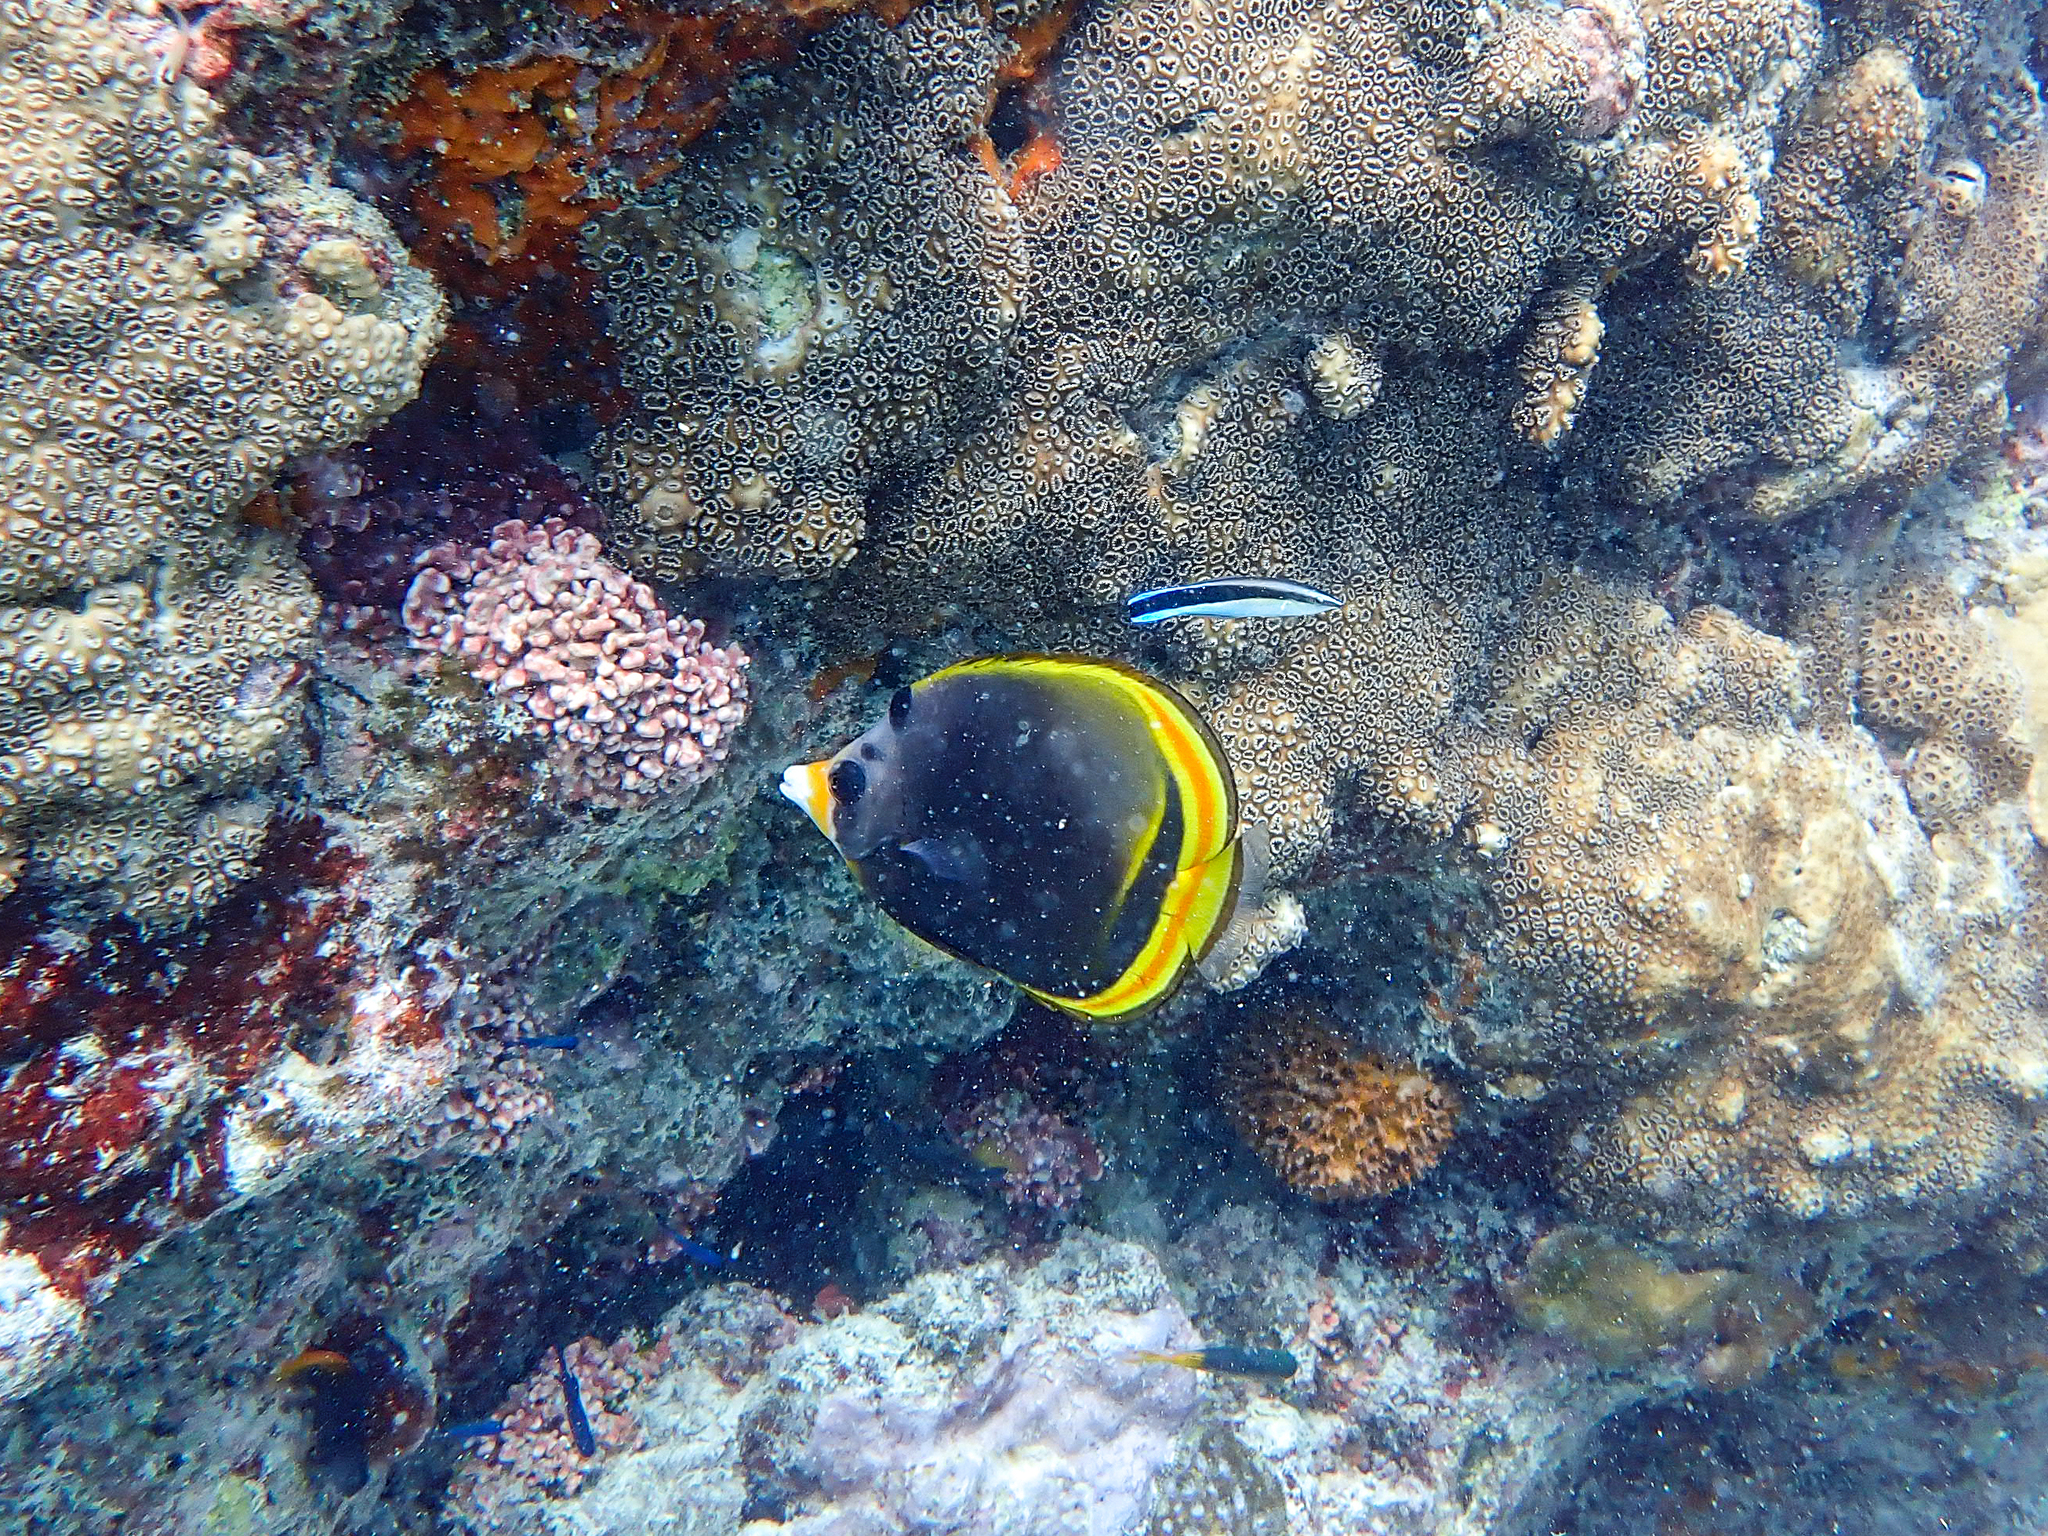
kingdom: Animalia
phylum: Chordata
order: Perciformes
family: Chaetodontidae
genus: Chaetodon
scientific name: Chaetodon flavirostris
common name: Black butterflyfish
